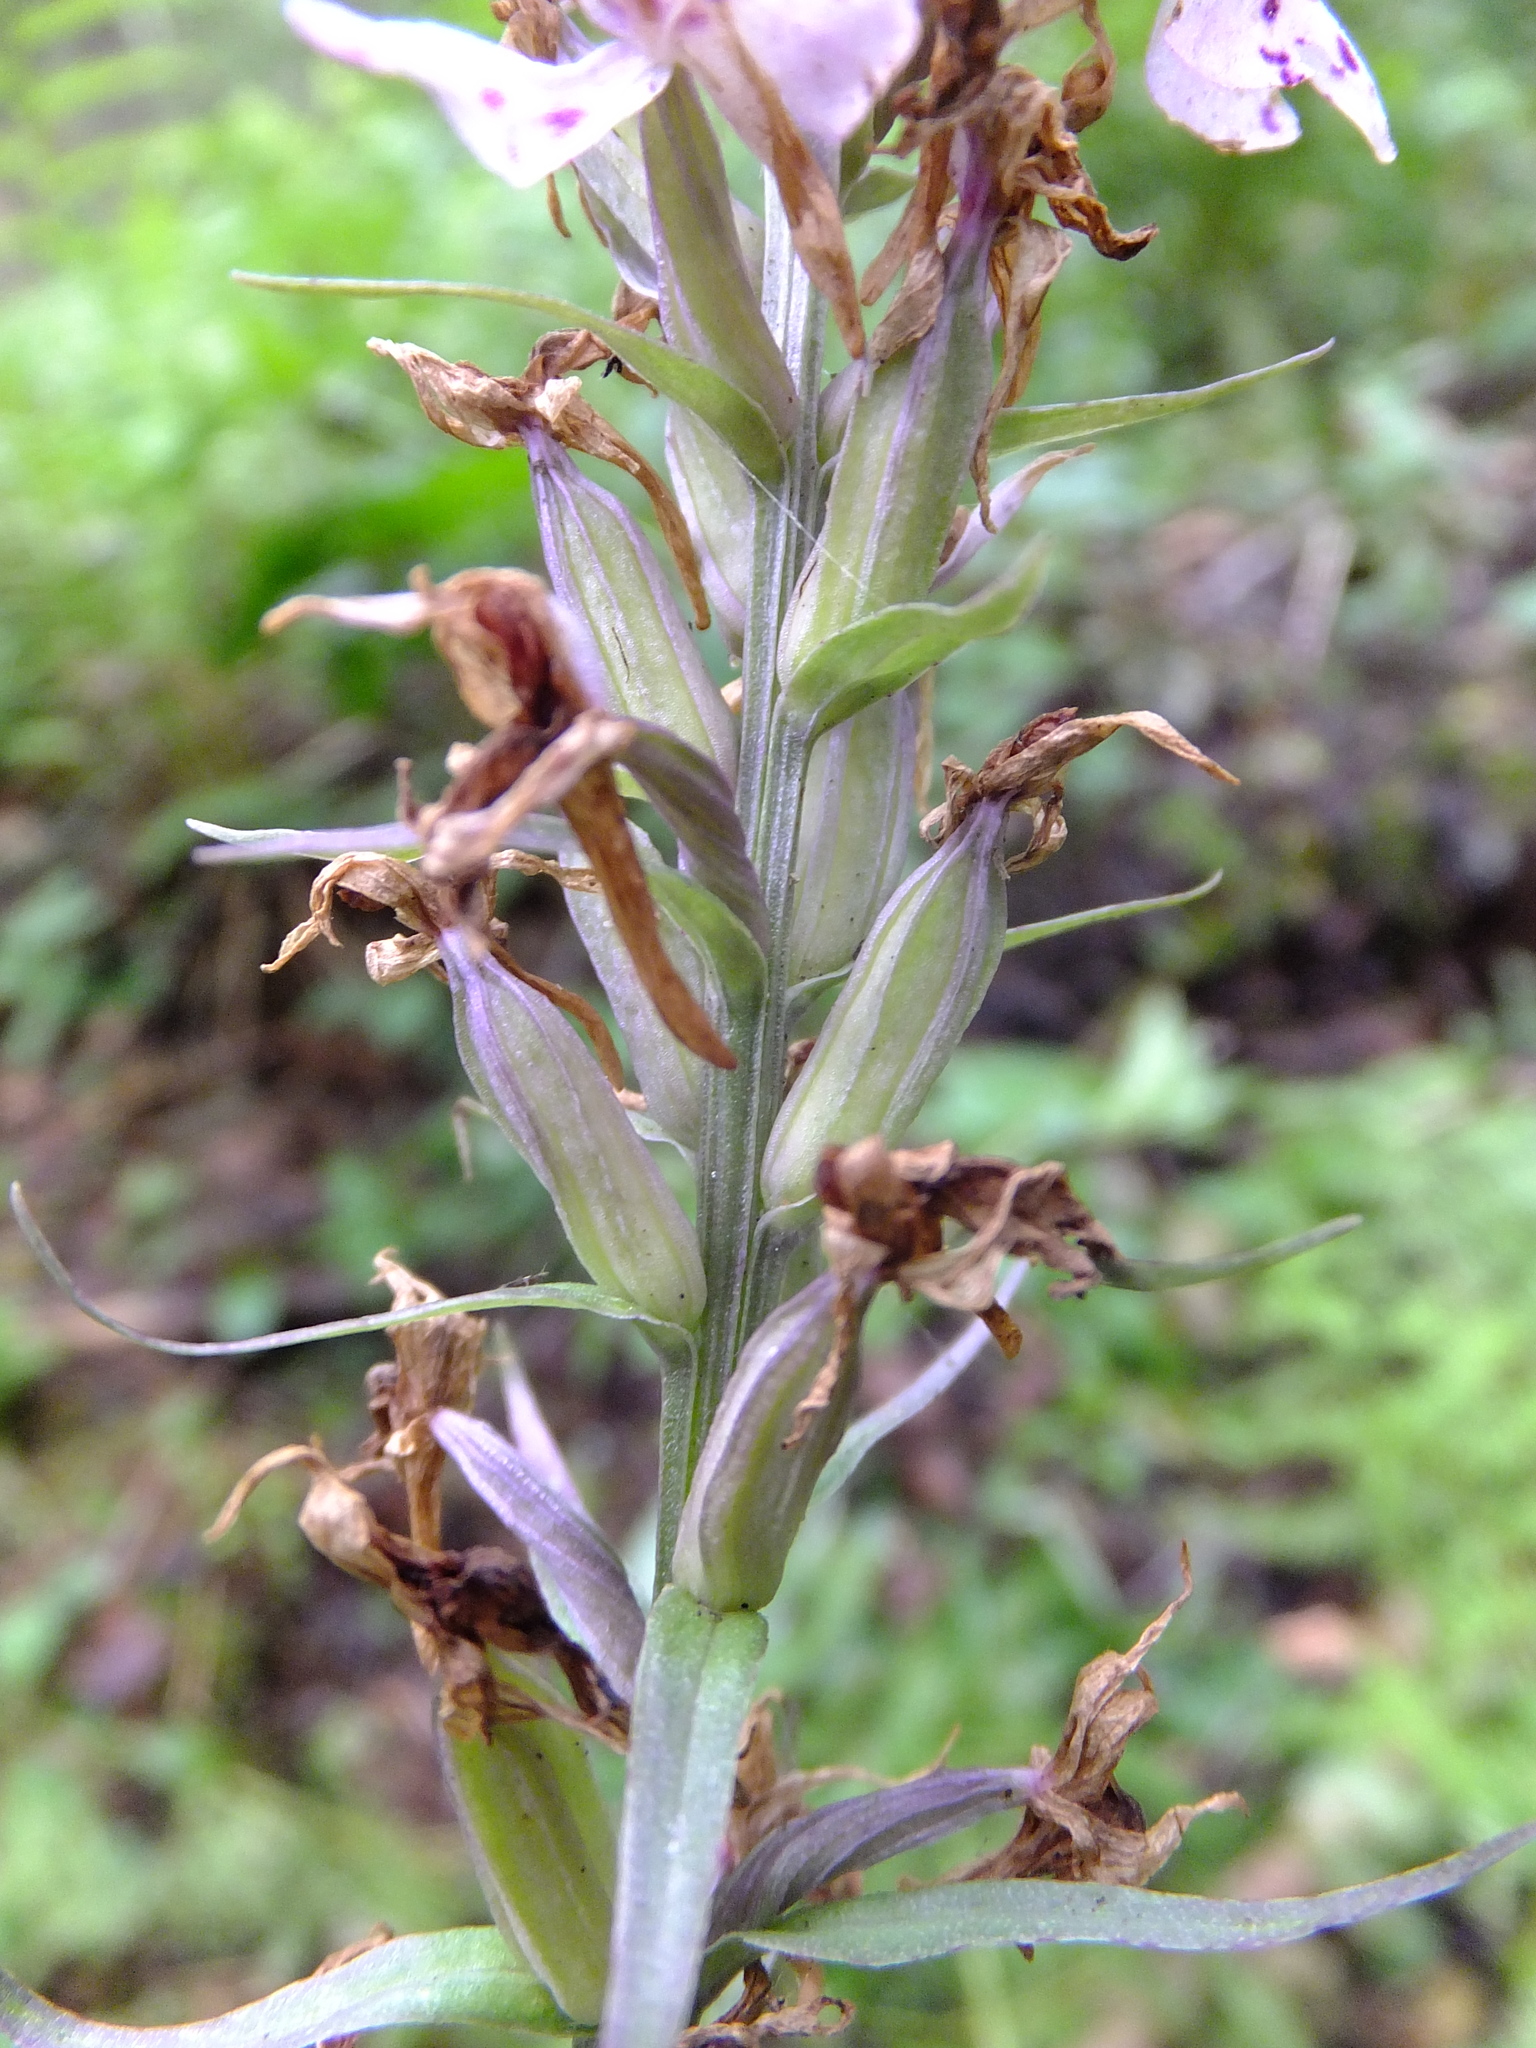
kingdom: Plantae
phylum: Tracheophyta
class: Liliopsida
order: Asparagales
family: Orchidaceae
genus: Dactylorhiza
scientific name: Dactylorhiza maculata
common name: Heath spotted-orchid
